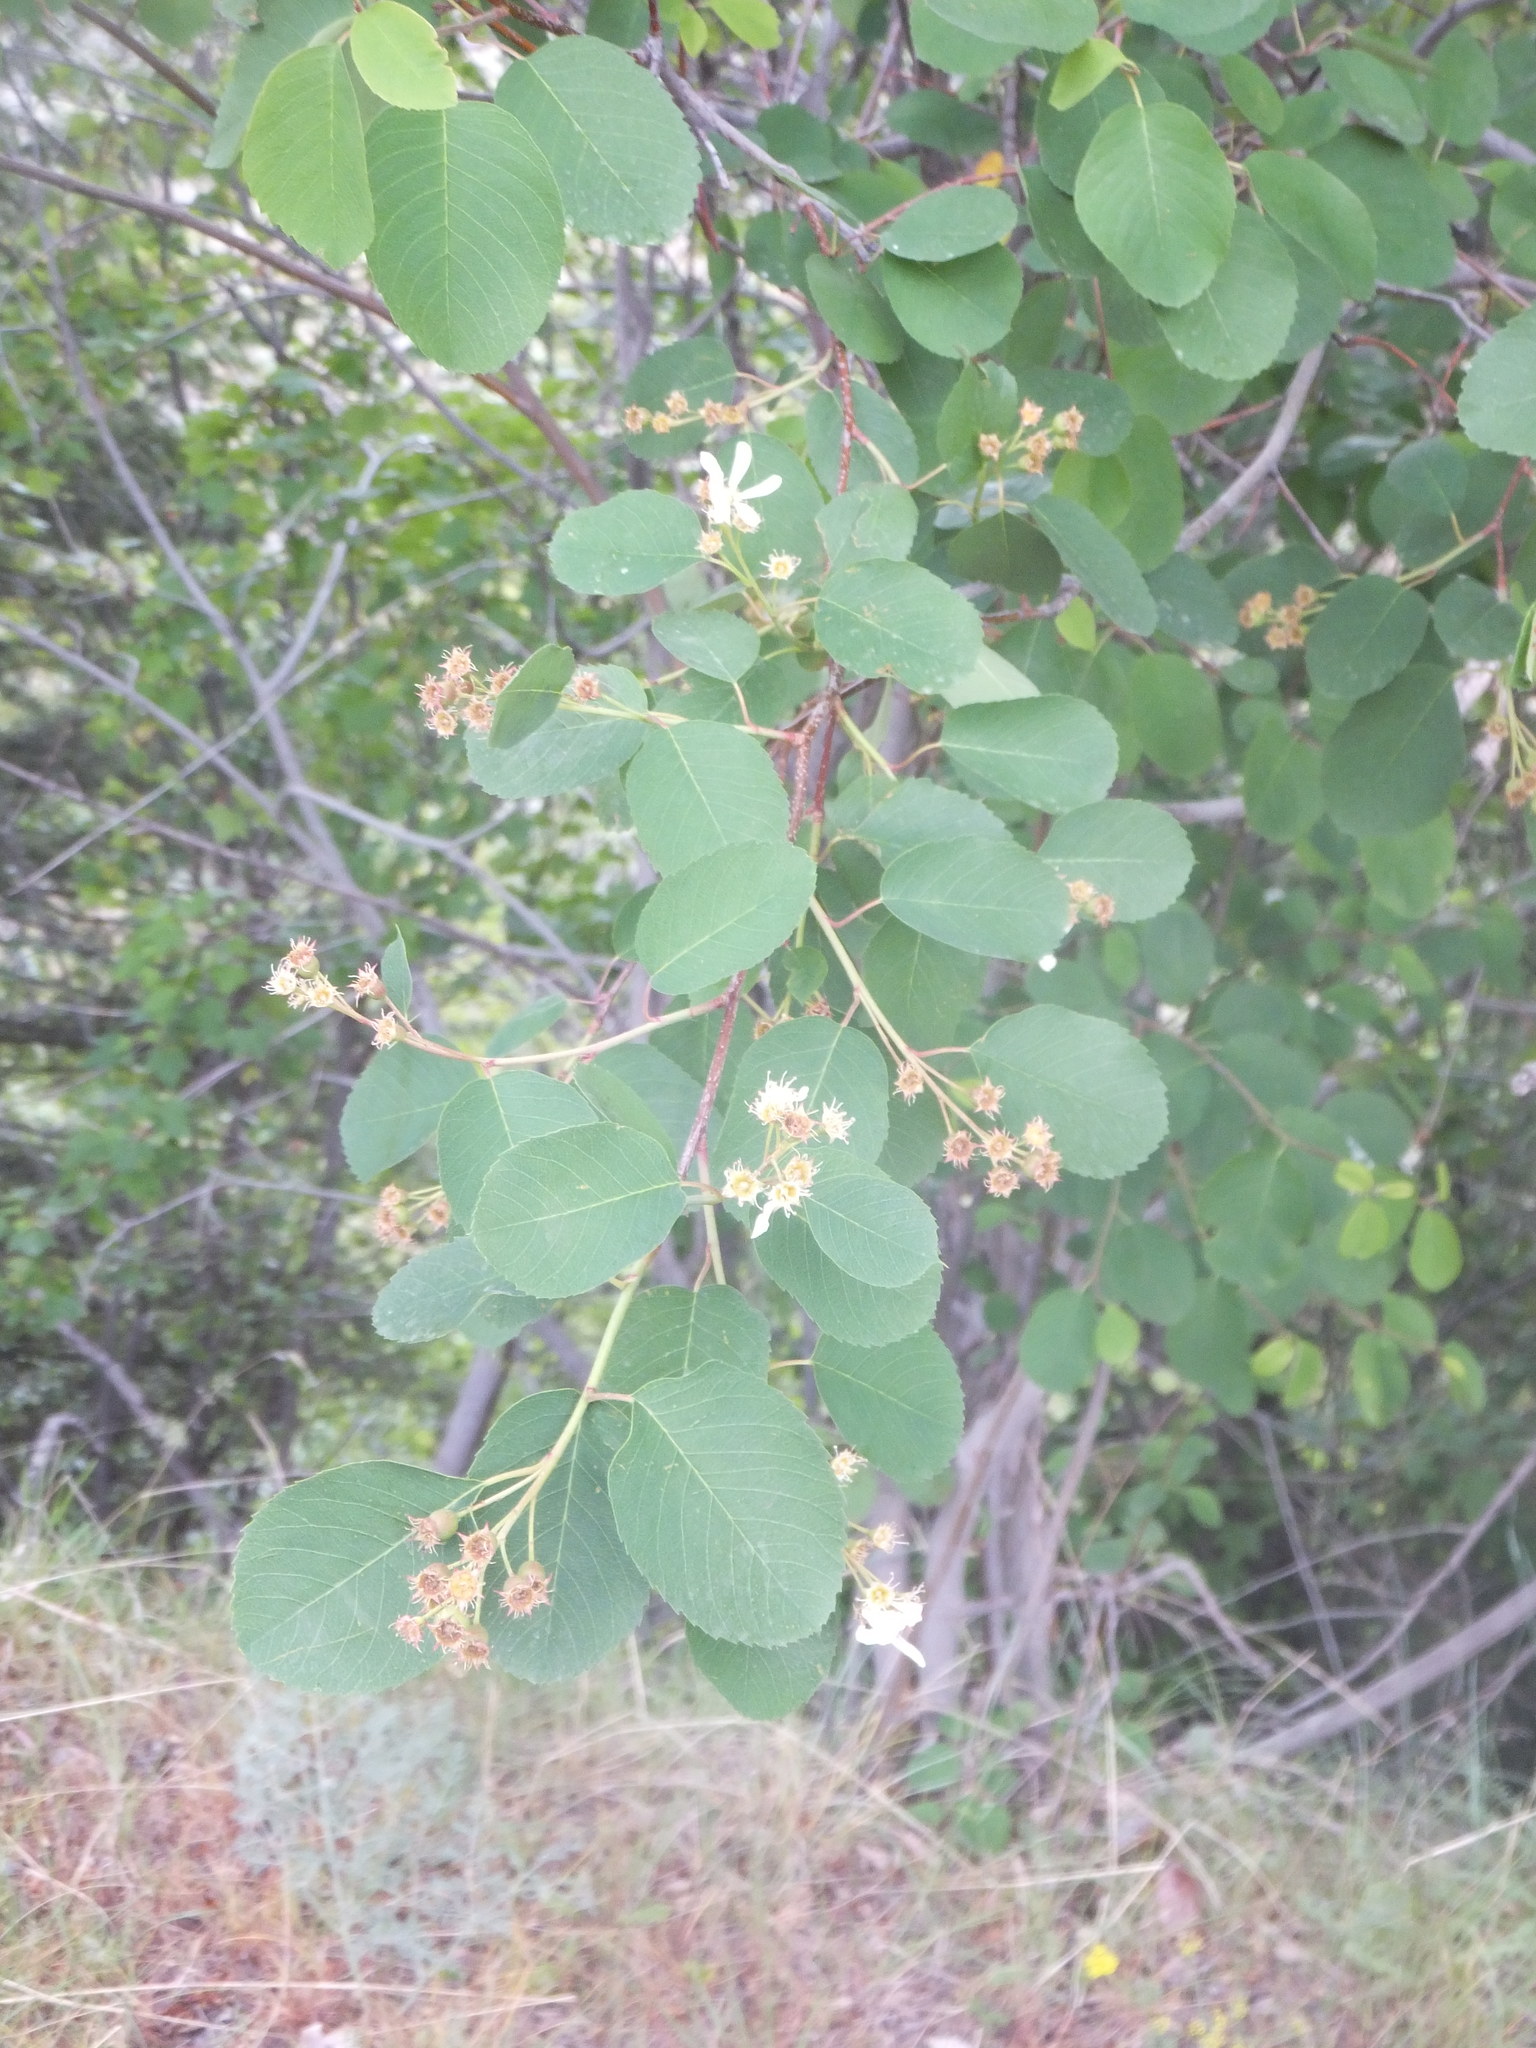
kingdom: Plantae
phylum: Tracheophyta
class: Magnoliopsida
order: Rosales
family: Rosaceae
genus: Amelanchier
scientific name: Amelanchier alnifolia
